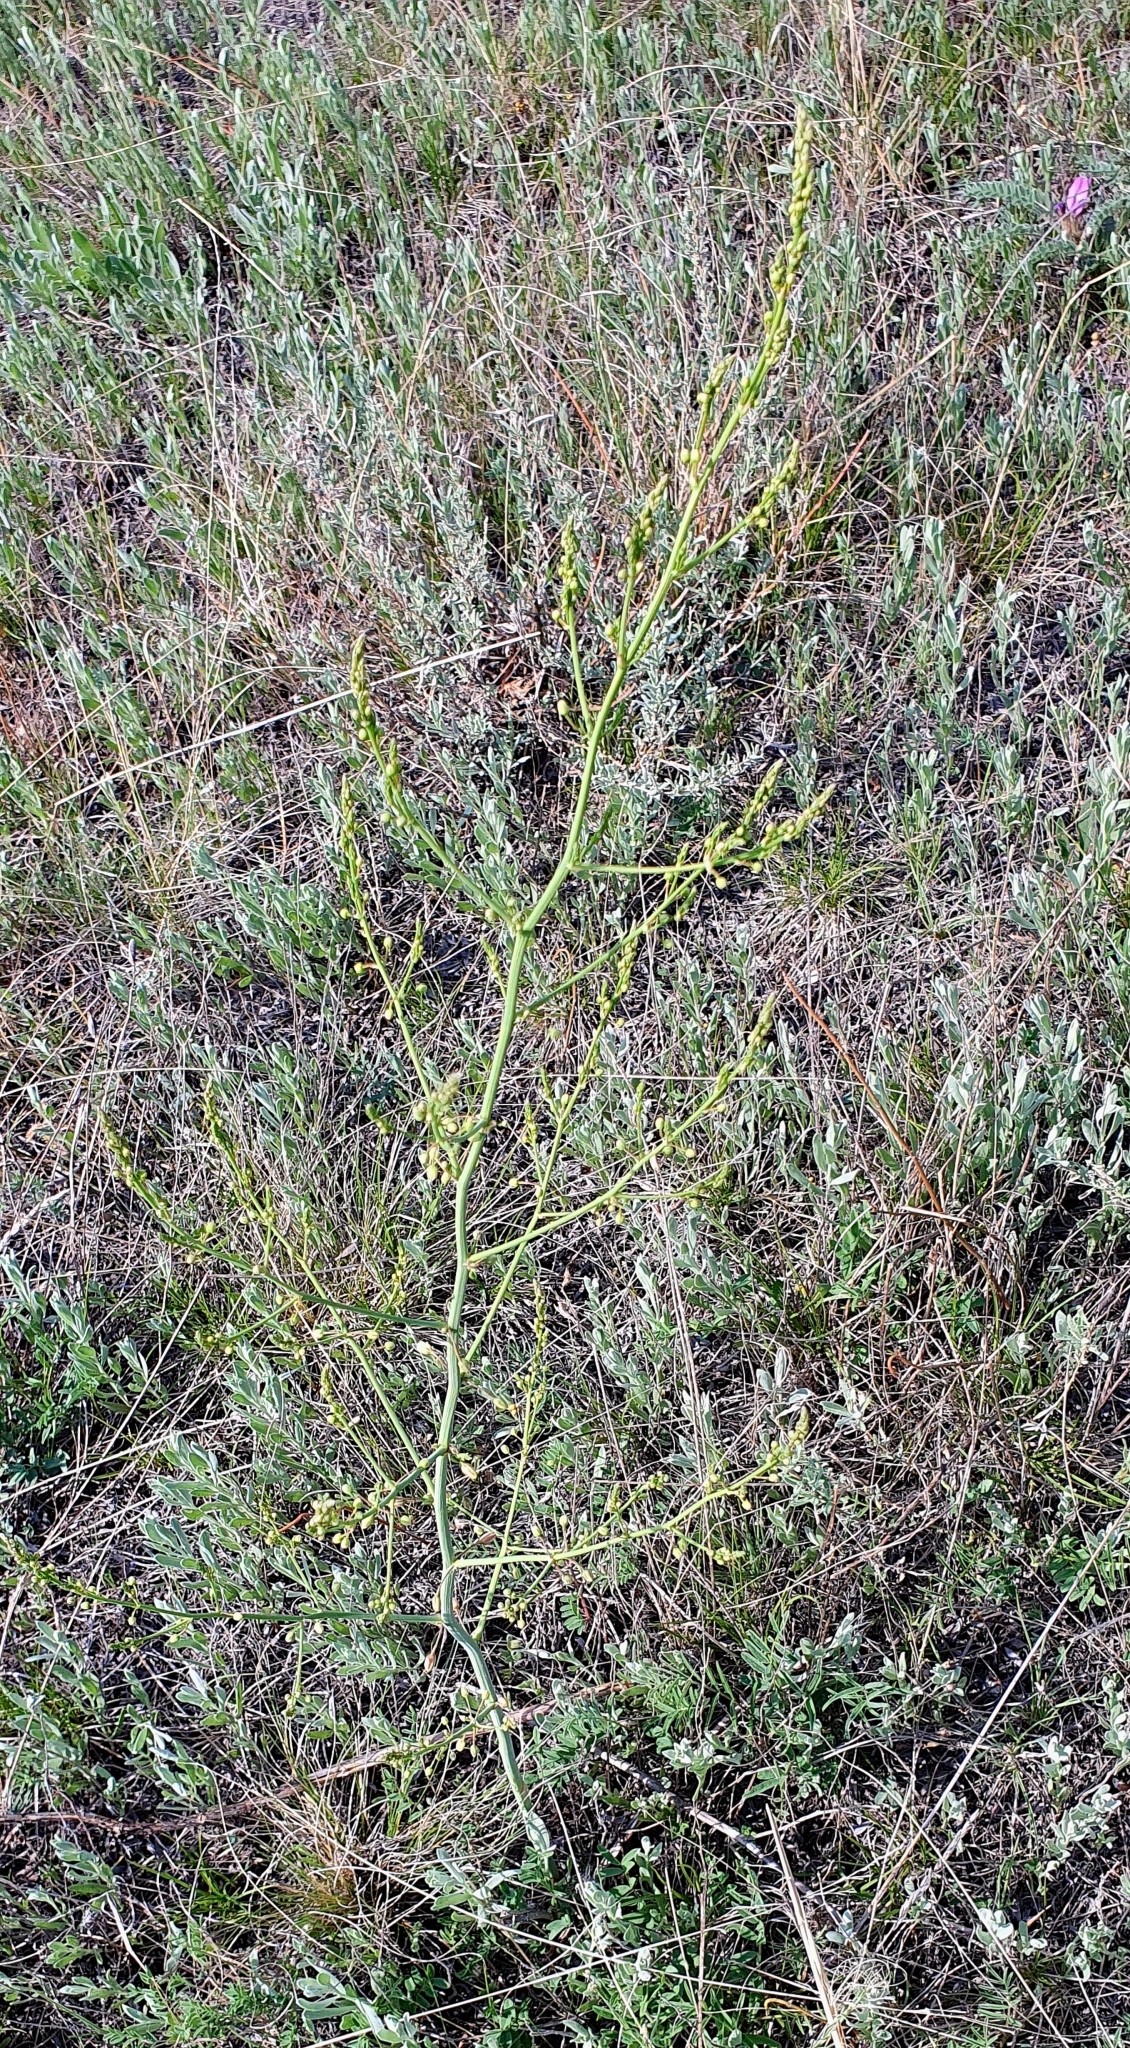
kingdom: Plantae
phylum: Tracheophyta
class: Liliopsida
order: Asparagales
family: Asparagaceae
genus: Asparagus
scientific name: Asparagus officinalis
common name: Garden asparagus
